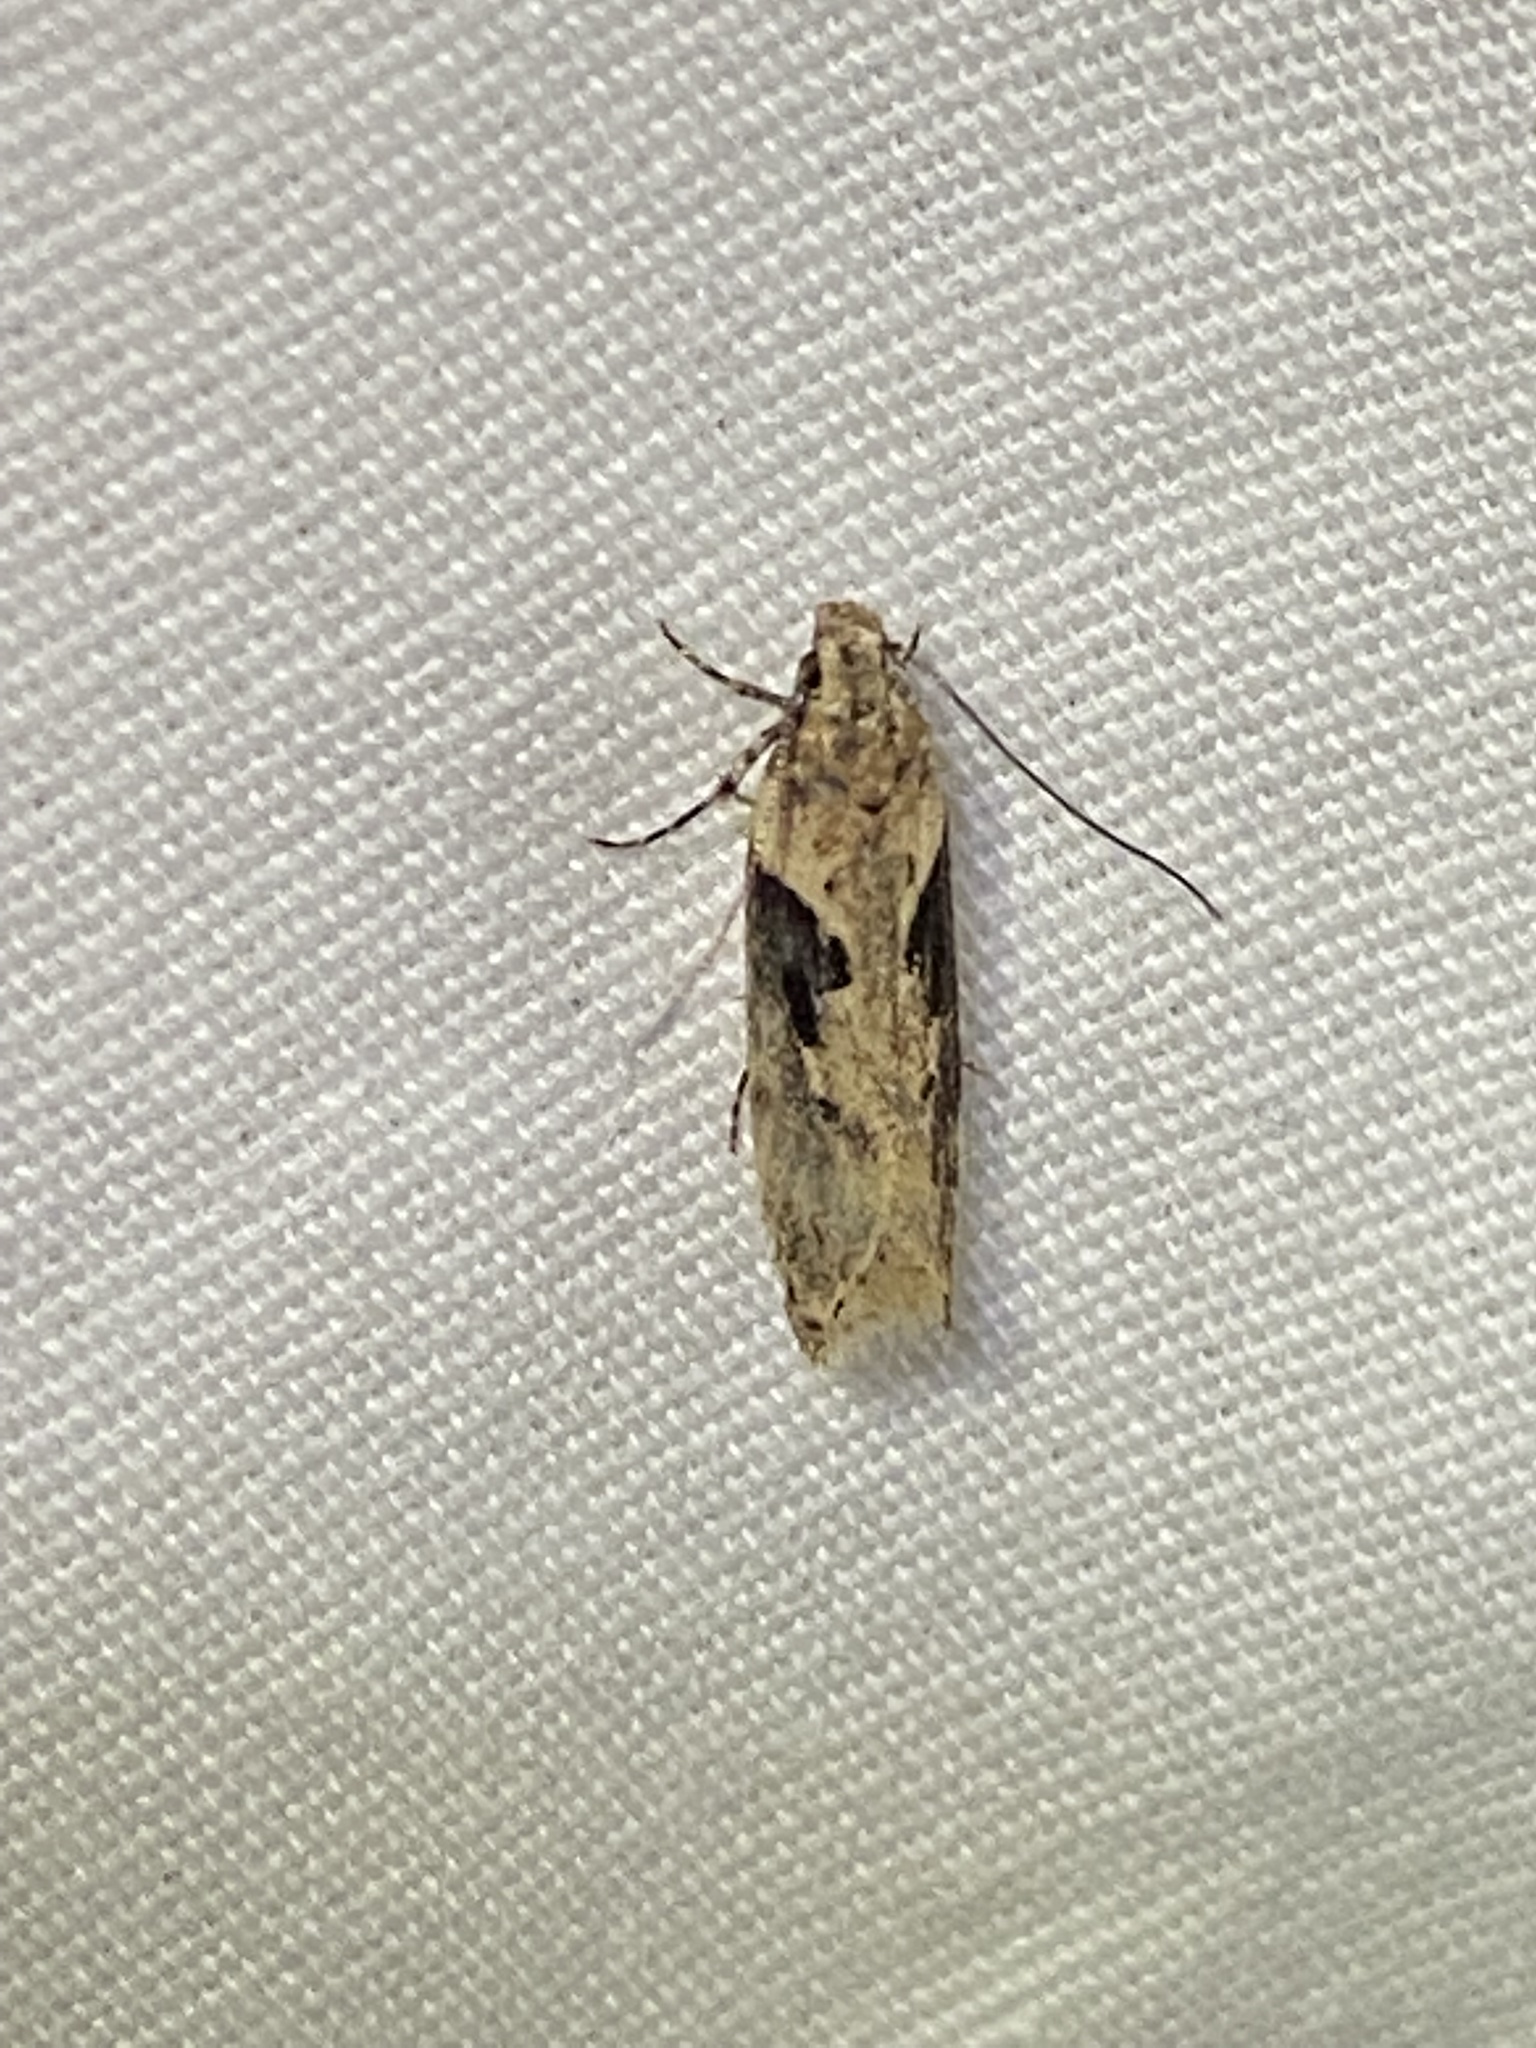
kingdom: Animalia
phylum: Arthropoda
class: Insecta
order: Lepidoptera
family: Gelechiidae
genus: Chionodes
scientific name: Chionodes mediofuscella
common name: Black-smudged chionodes moth
